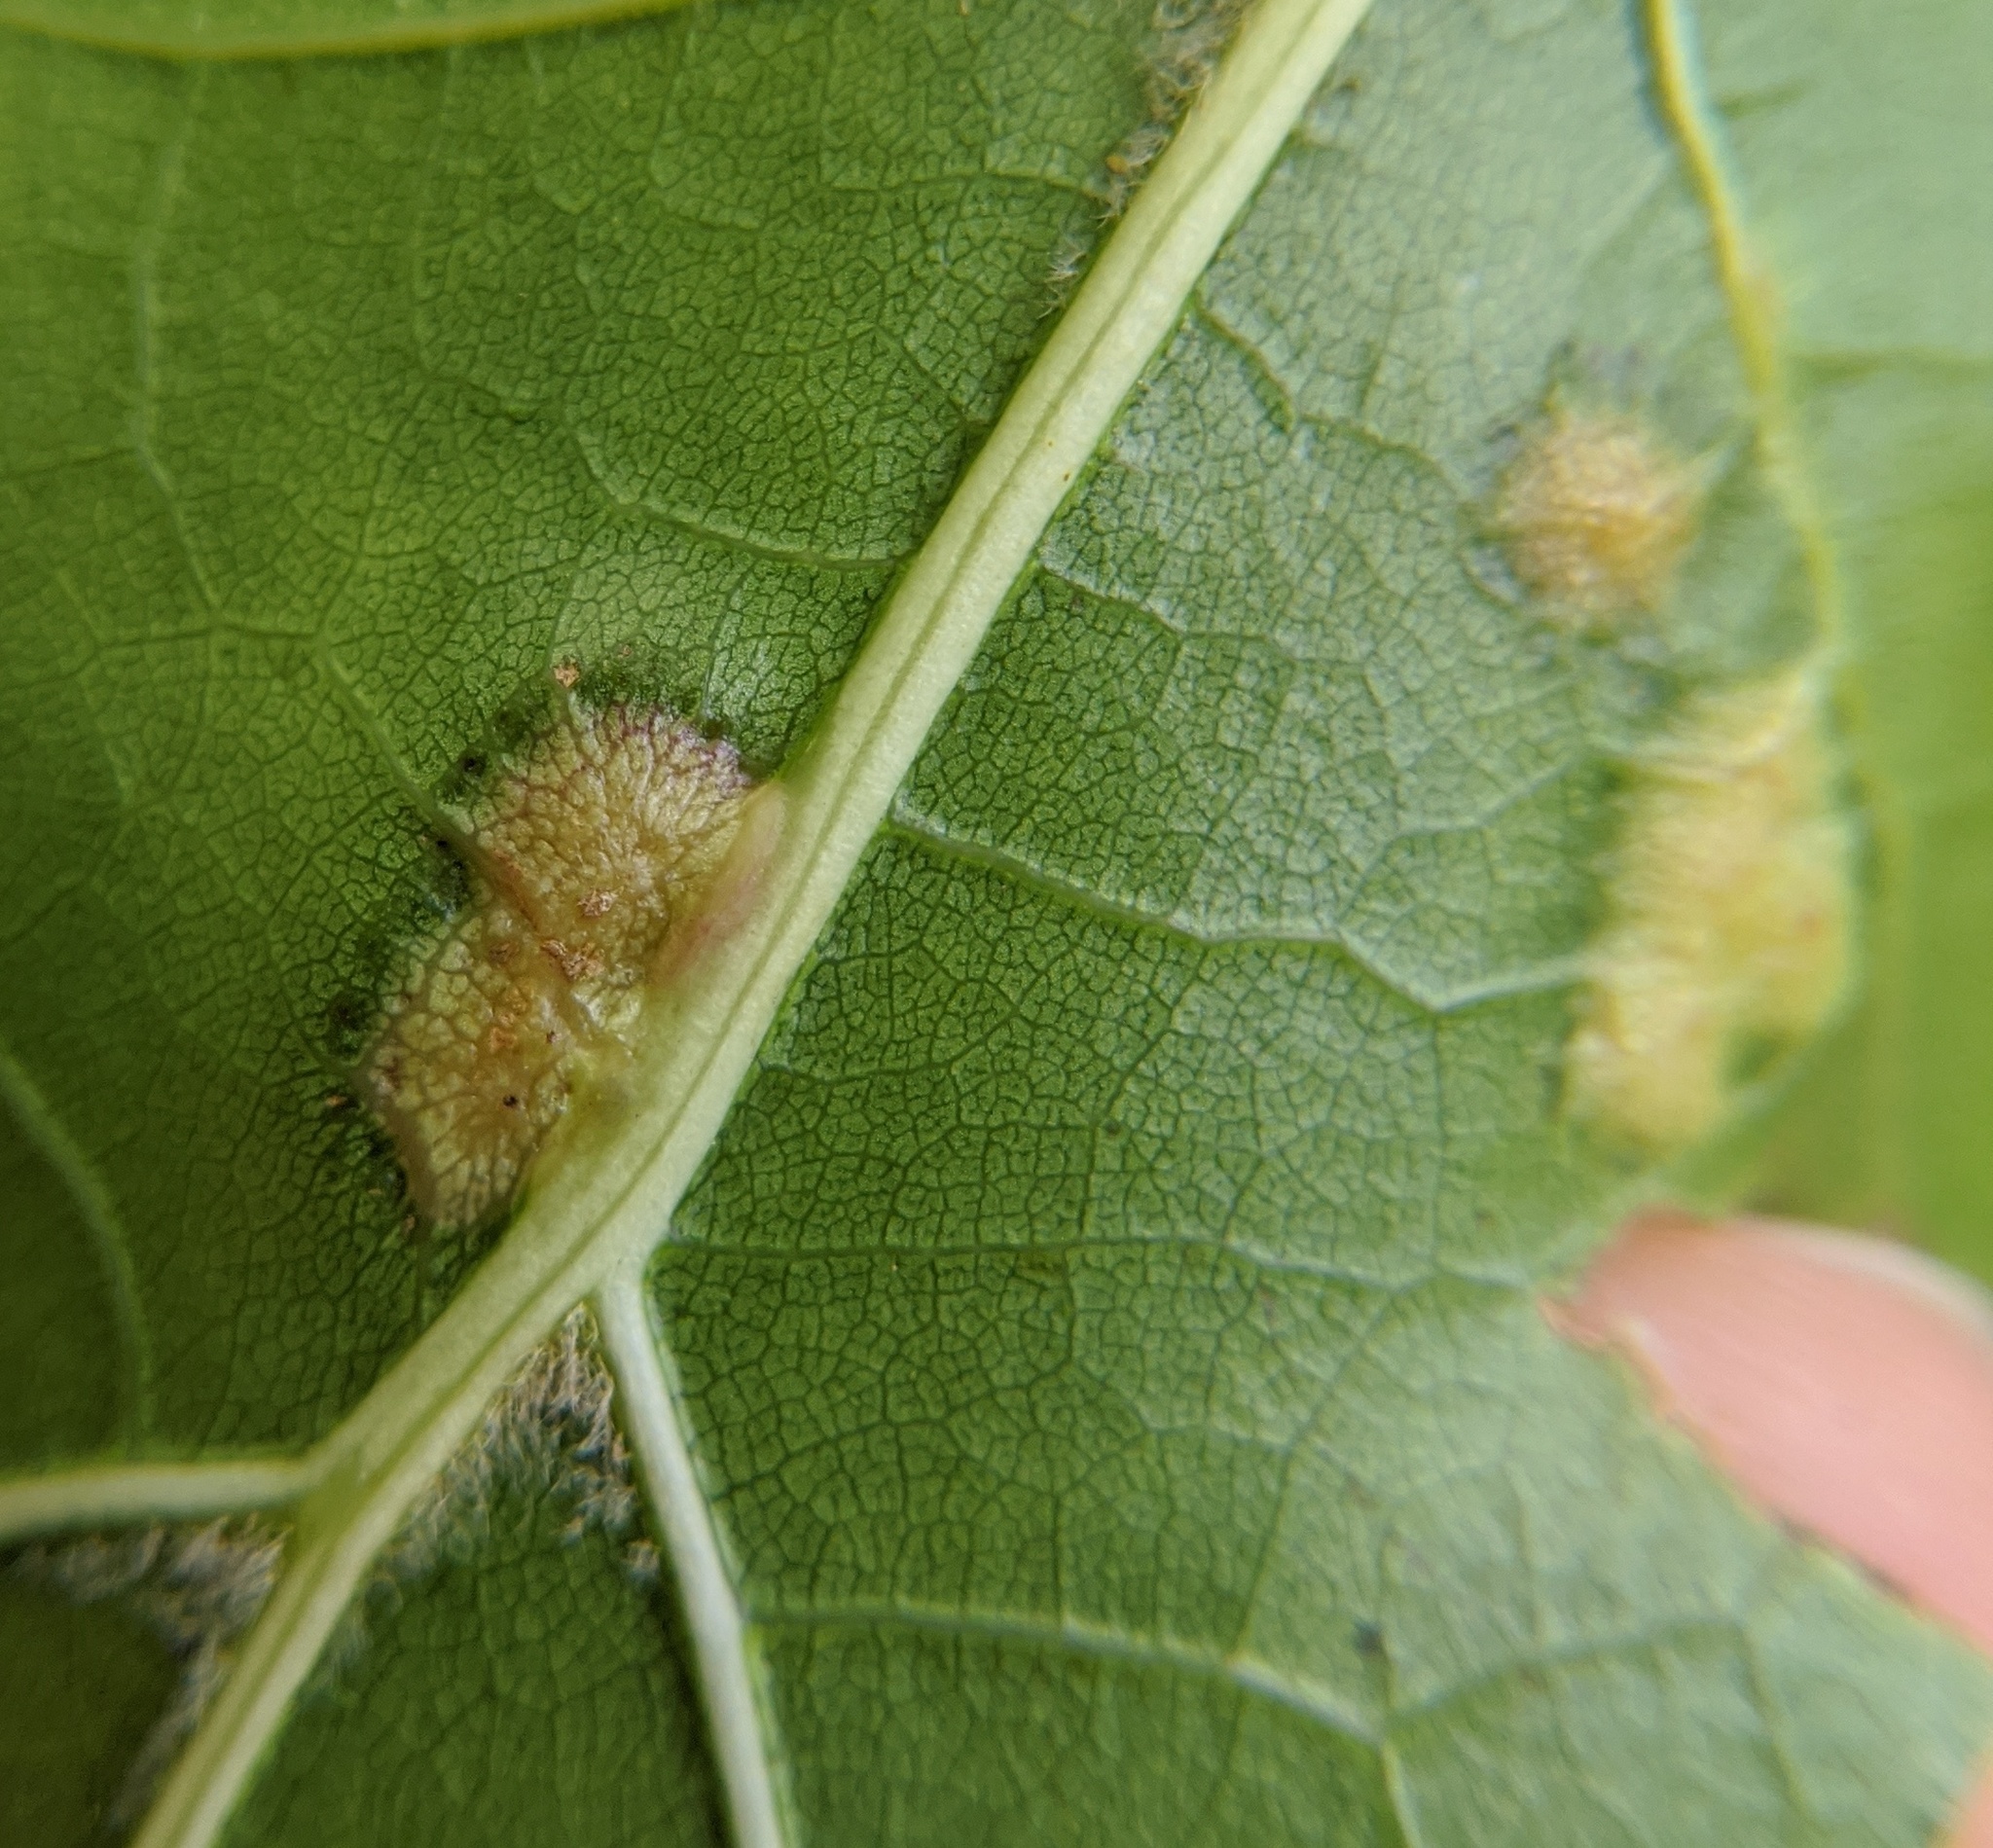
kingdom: Animalia
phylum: Arthropoda
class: Insecta
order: Diptera
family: Cecidomyiidae
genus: Polystepha
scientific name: Polystepha pilulae
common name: Oak leaf gall midge
